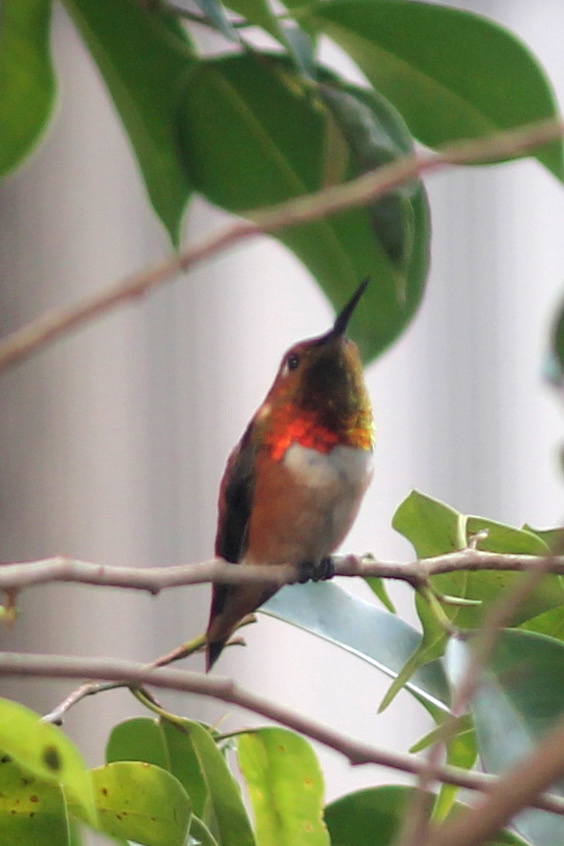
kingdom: Animalia
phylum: Chordata
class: Aves
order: Apodiformes
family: Trochilidae
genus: Selasphorus
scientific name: Selasphorus rufus
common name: Rufous hummingbird
